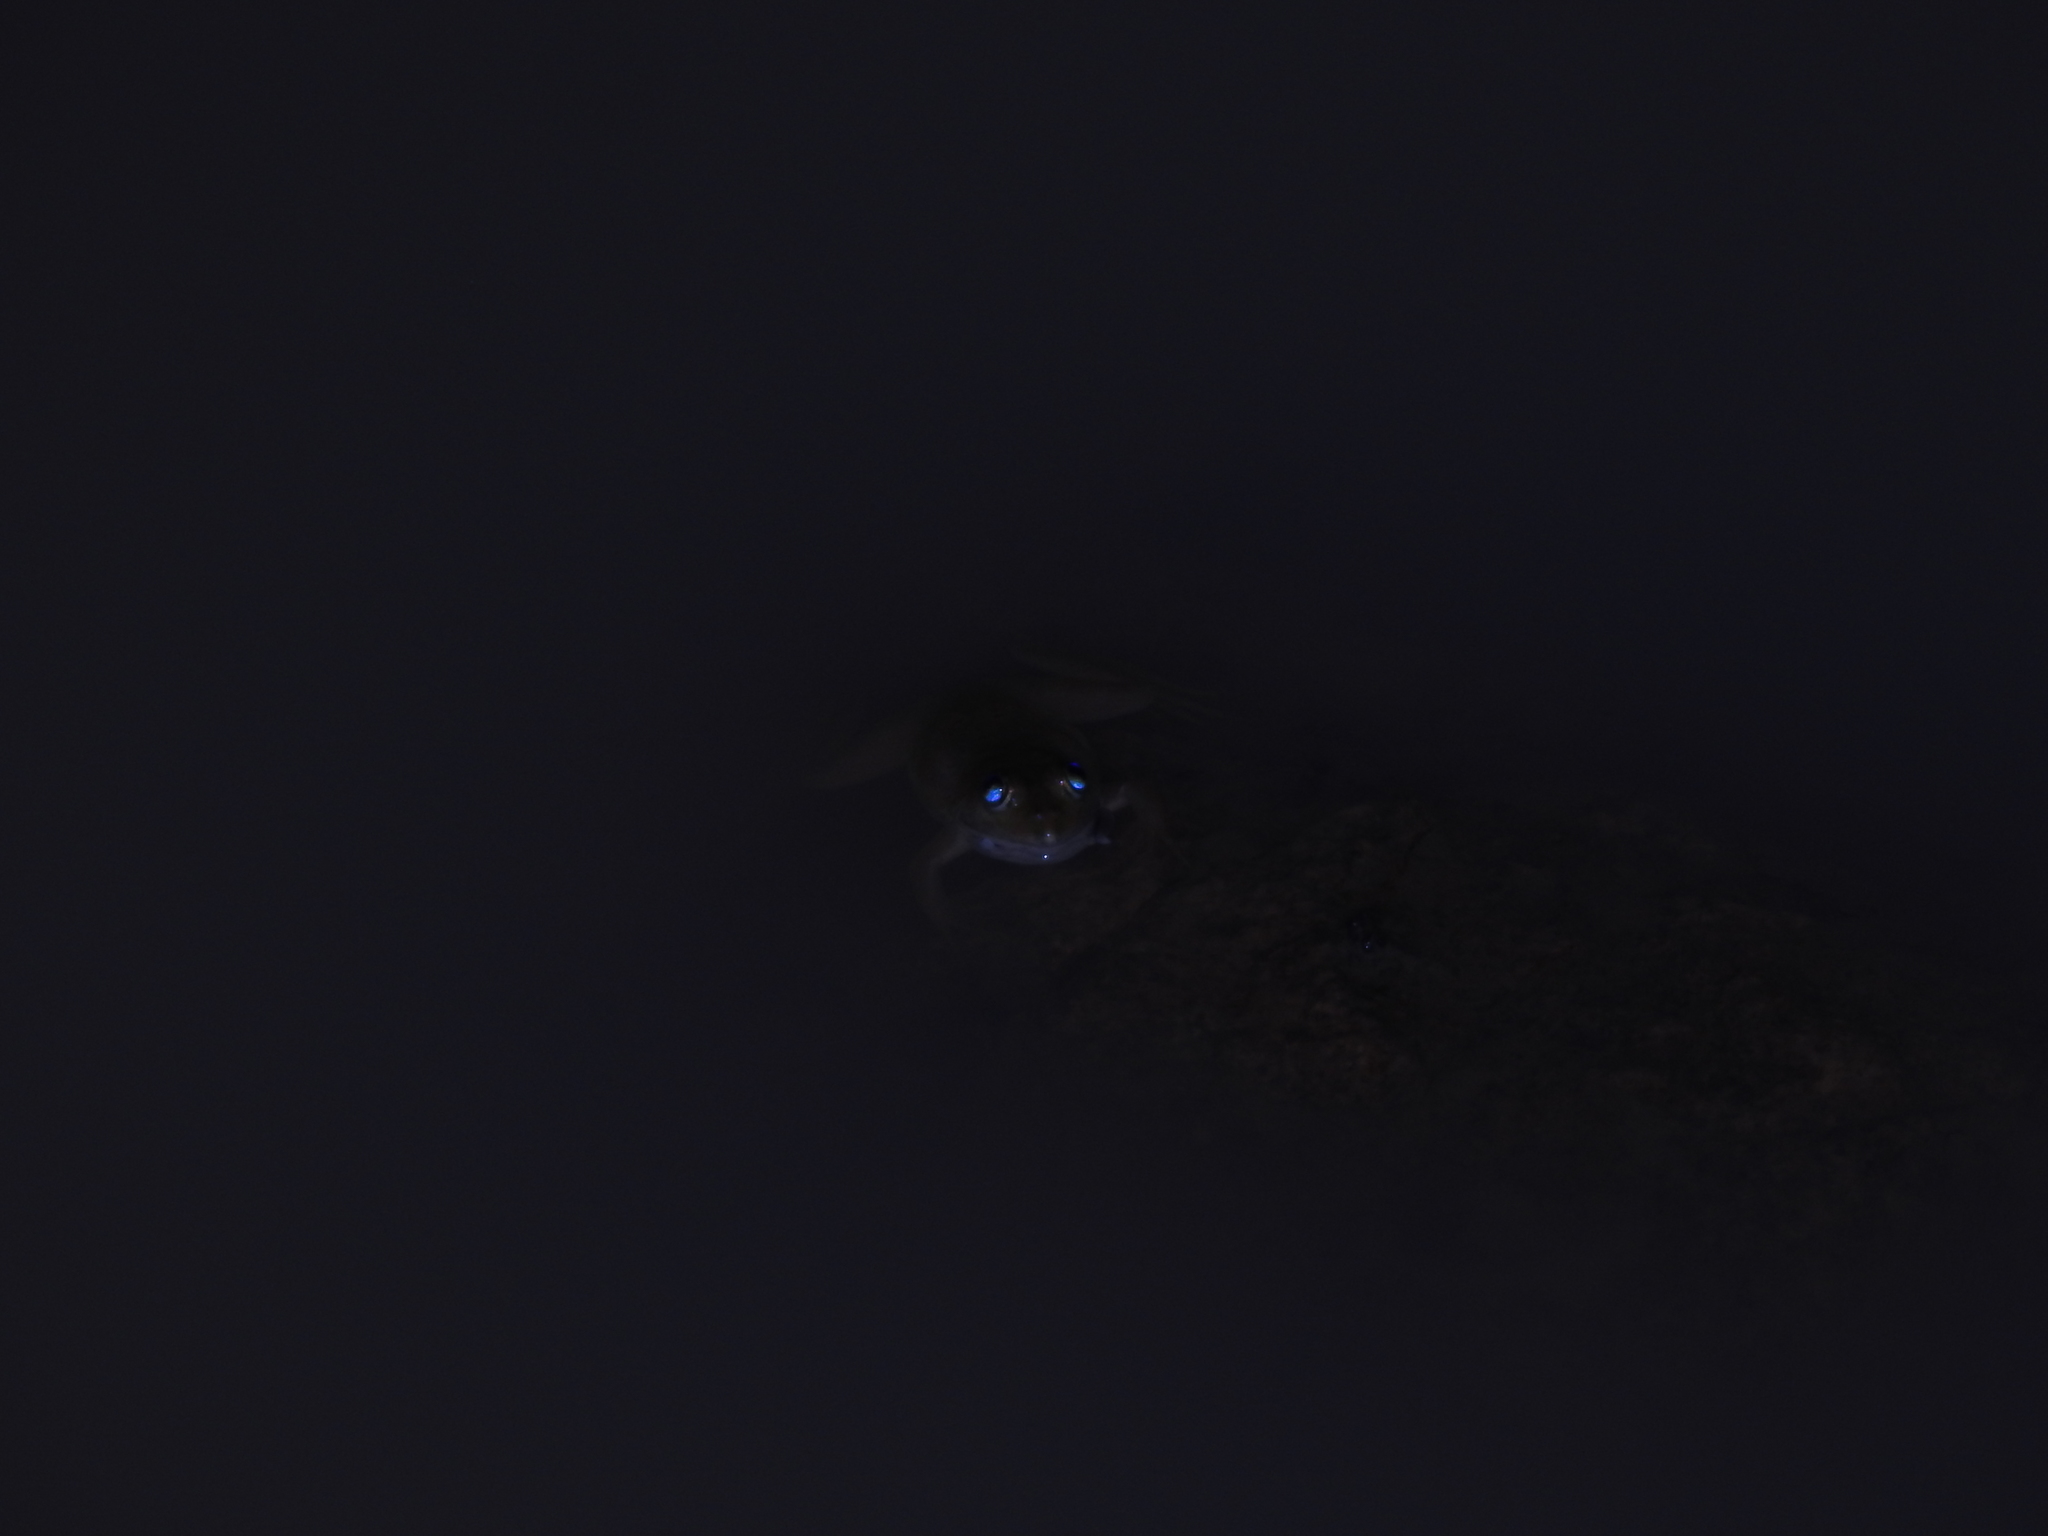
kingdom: Animalia
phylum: Chordata
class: Amphibia
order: Anura
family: Dicroglossidae
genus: Euphlyctis
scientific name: Euphlyctis cyanophlyctis
